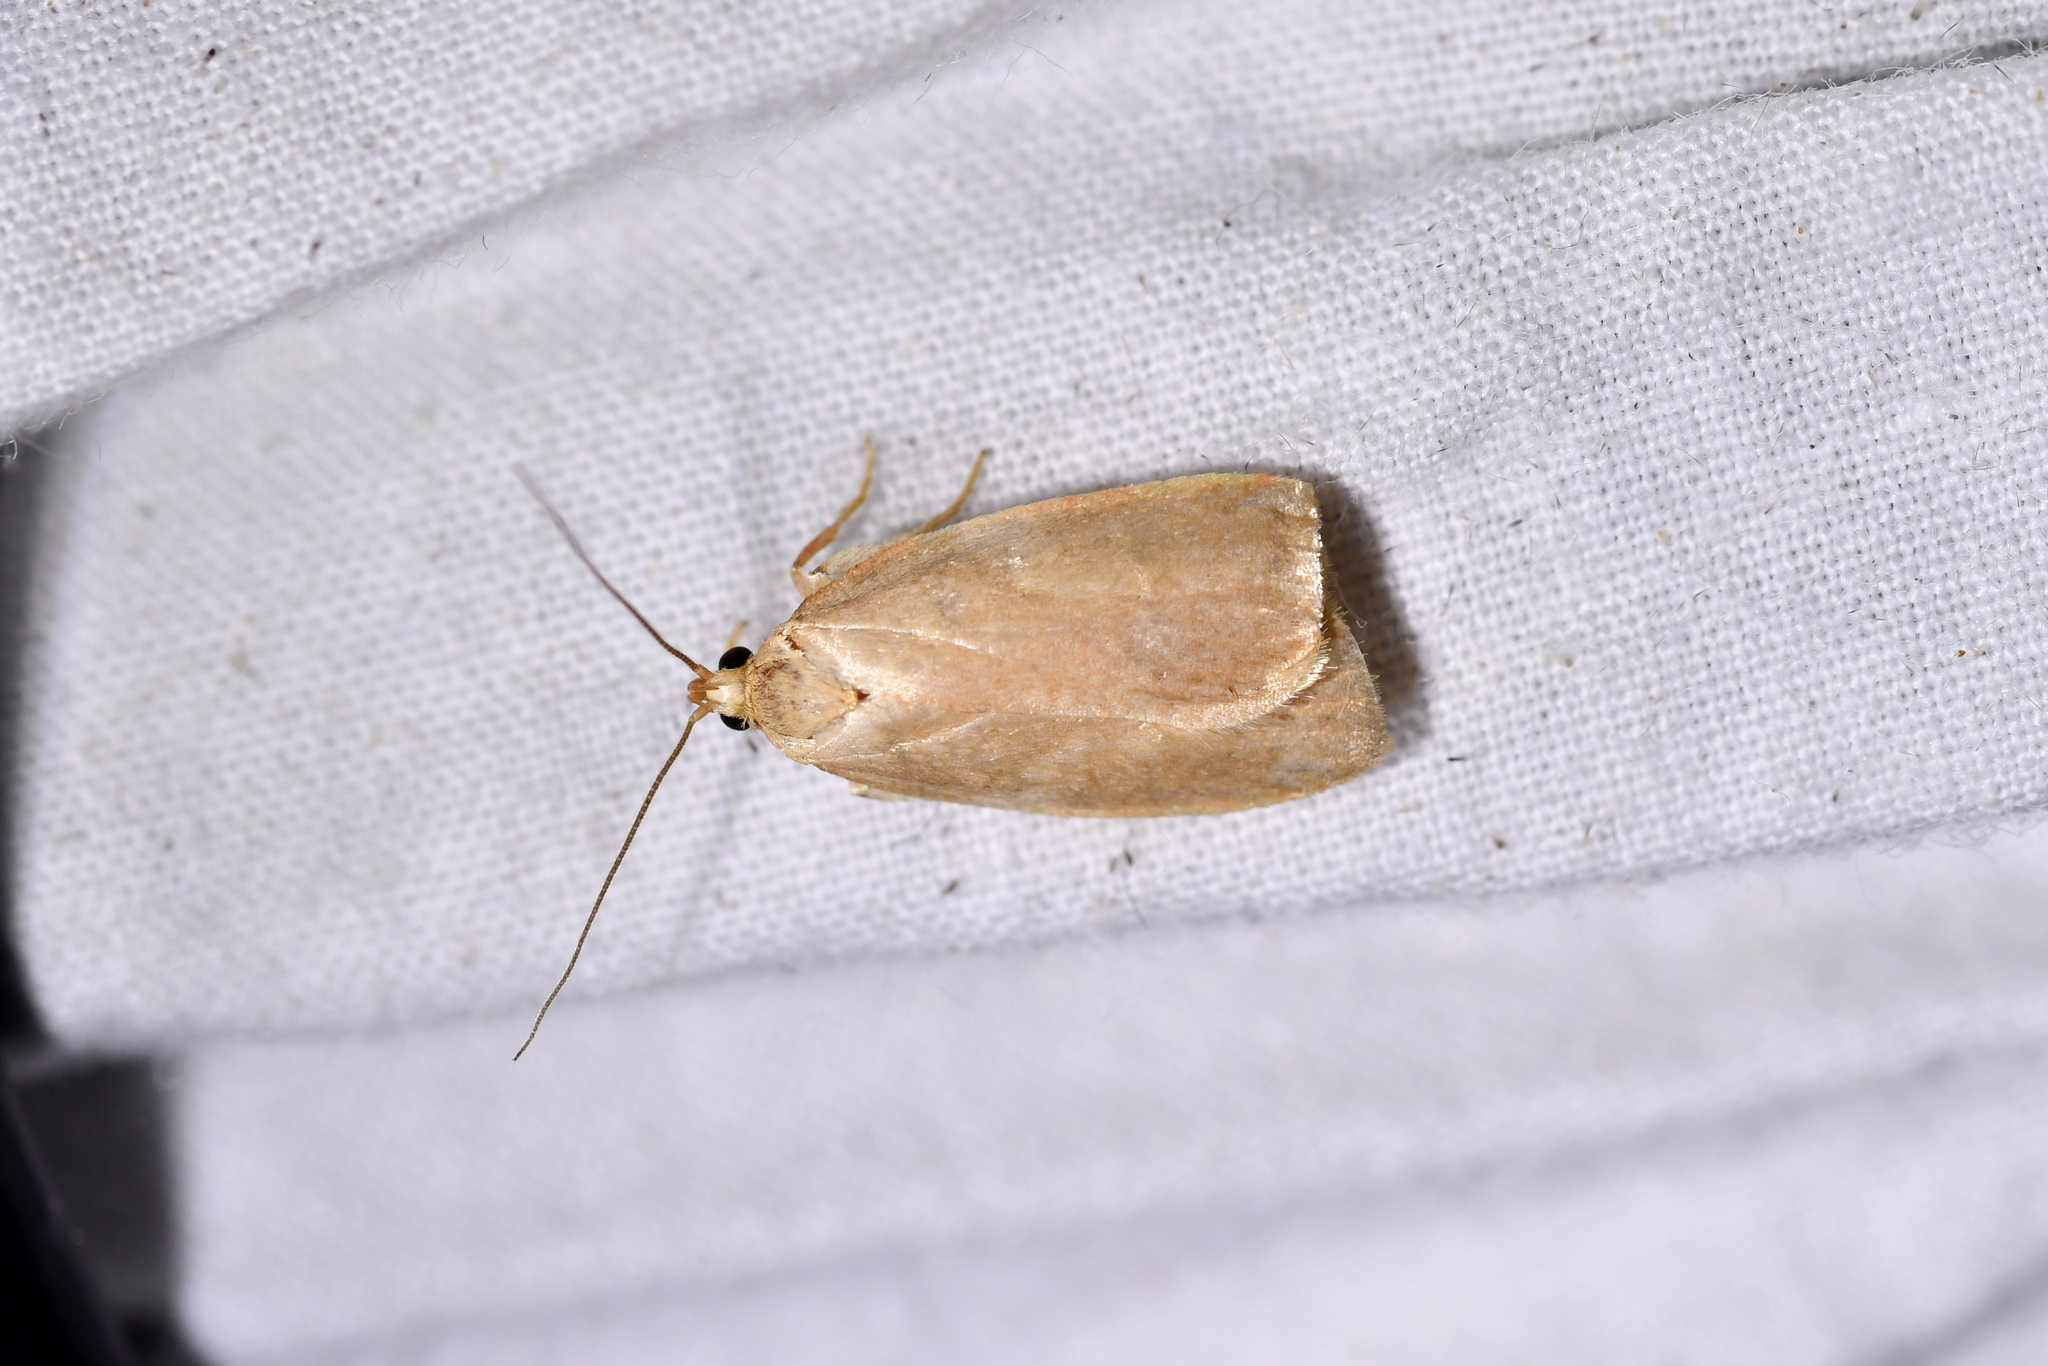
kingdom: Animalia
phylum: Arthropoda
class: Insecta
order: Lepidoptera
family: Oecophoridae
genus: Proteodes
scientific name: Proteodes carnifex
